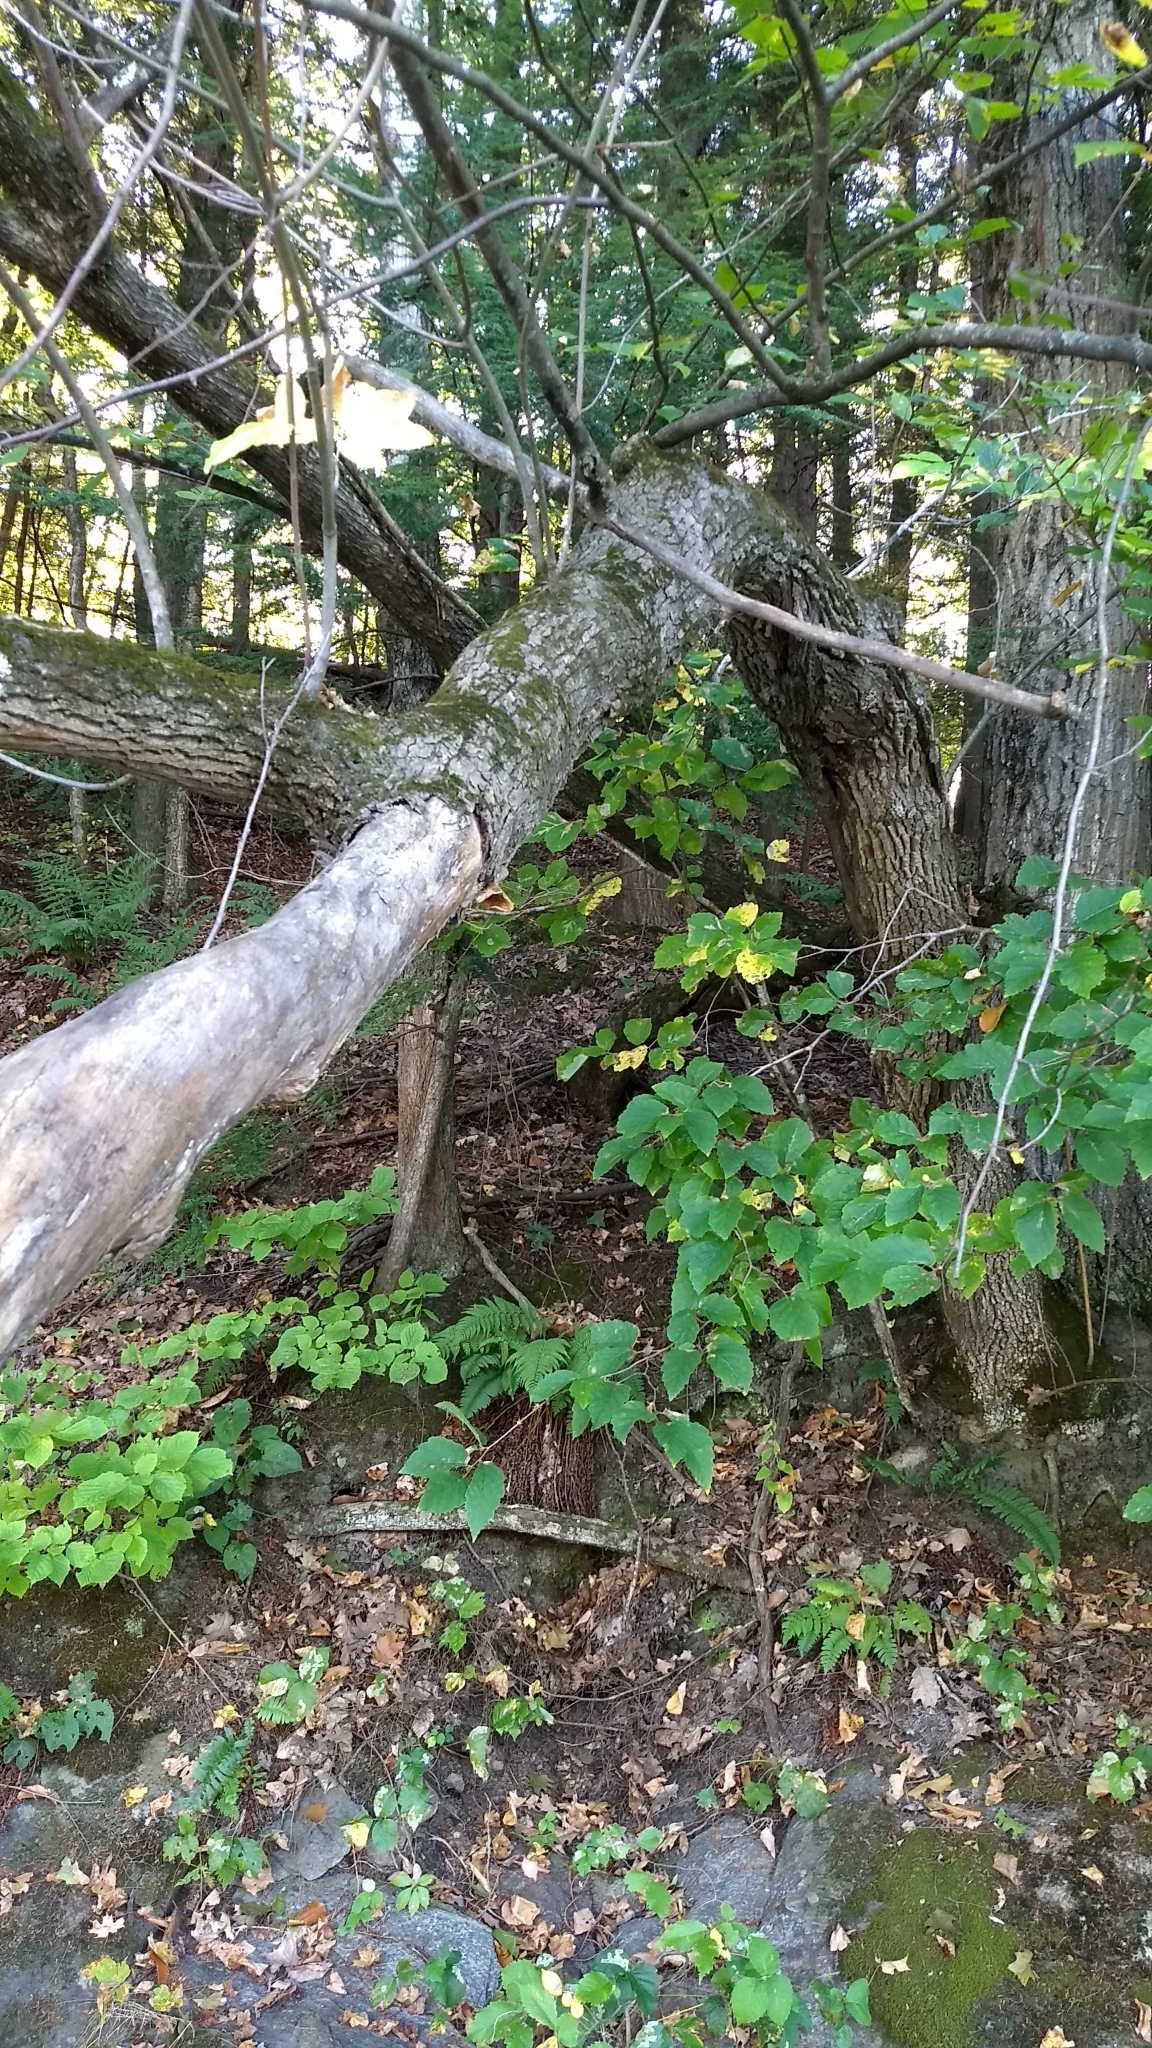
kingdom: Plantae
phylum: Tracheophyta
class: Magnoliopsida
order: Fagales
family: Betulaceae
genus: Ostrya
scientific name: Ostrya virginiana
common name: Ironwood
